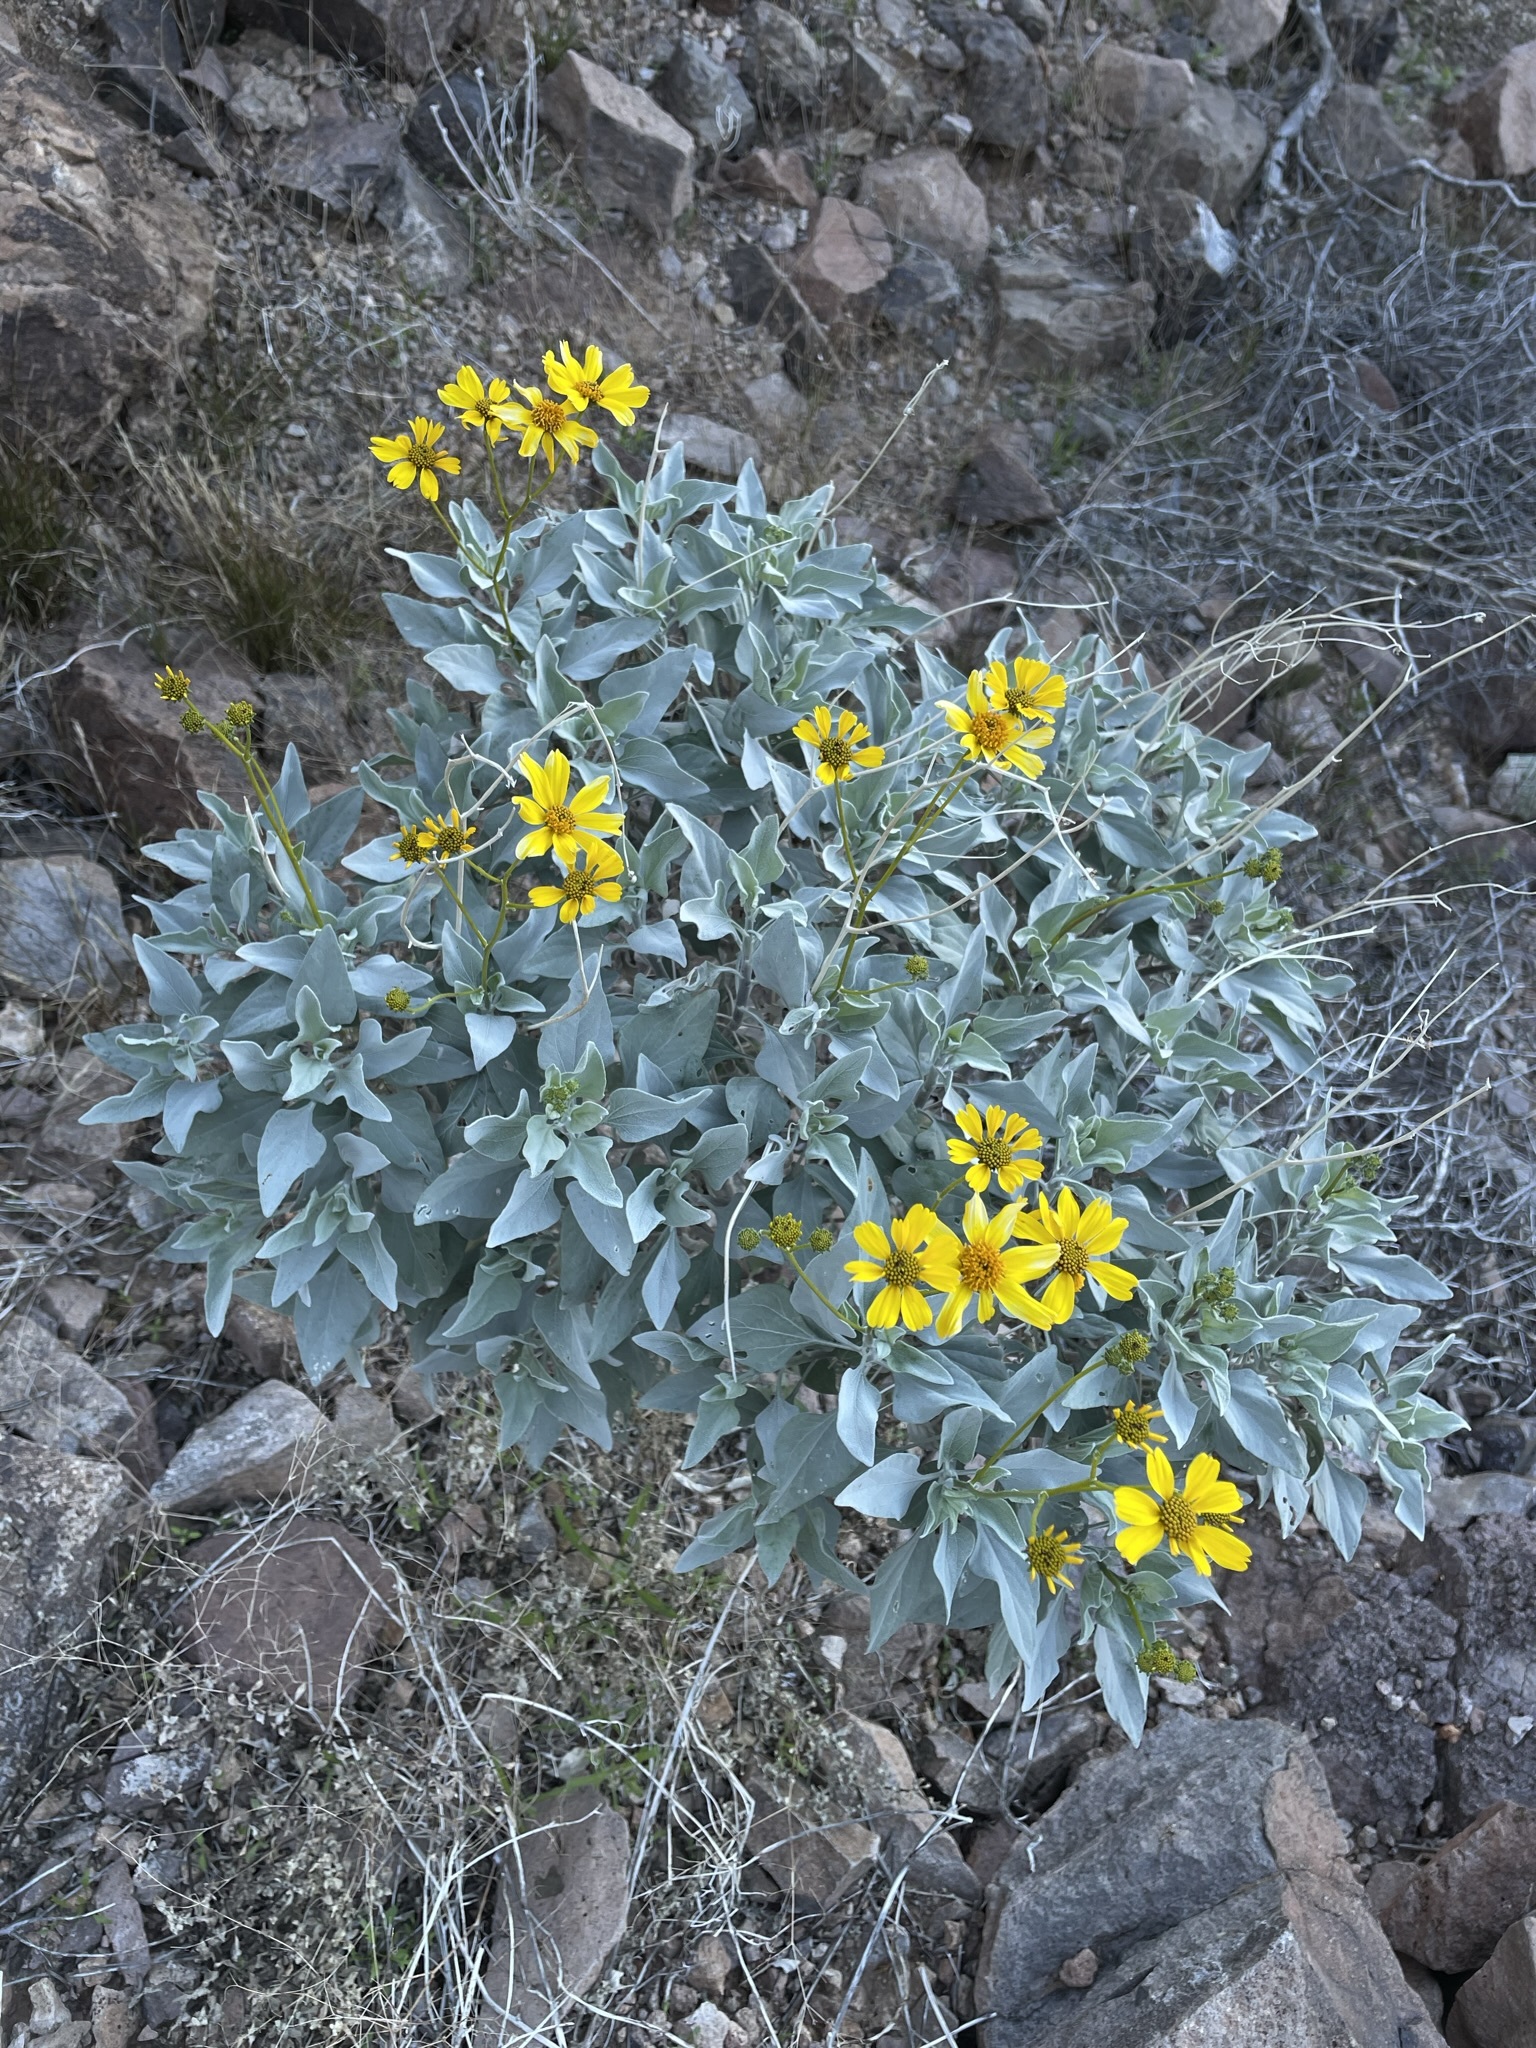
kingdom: Plantae
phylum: Tracheophyta
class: Magnoliopsida
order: Asterales
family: Asteraceae
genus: Encelia
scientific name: Encelia farinosa
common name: Brittlebush
